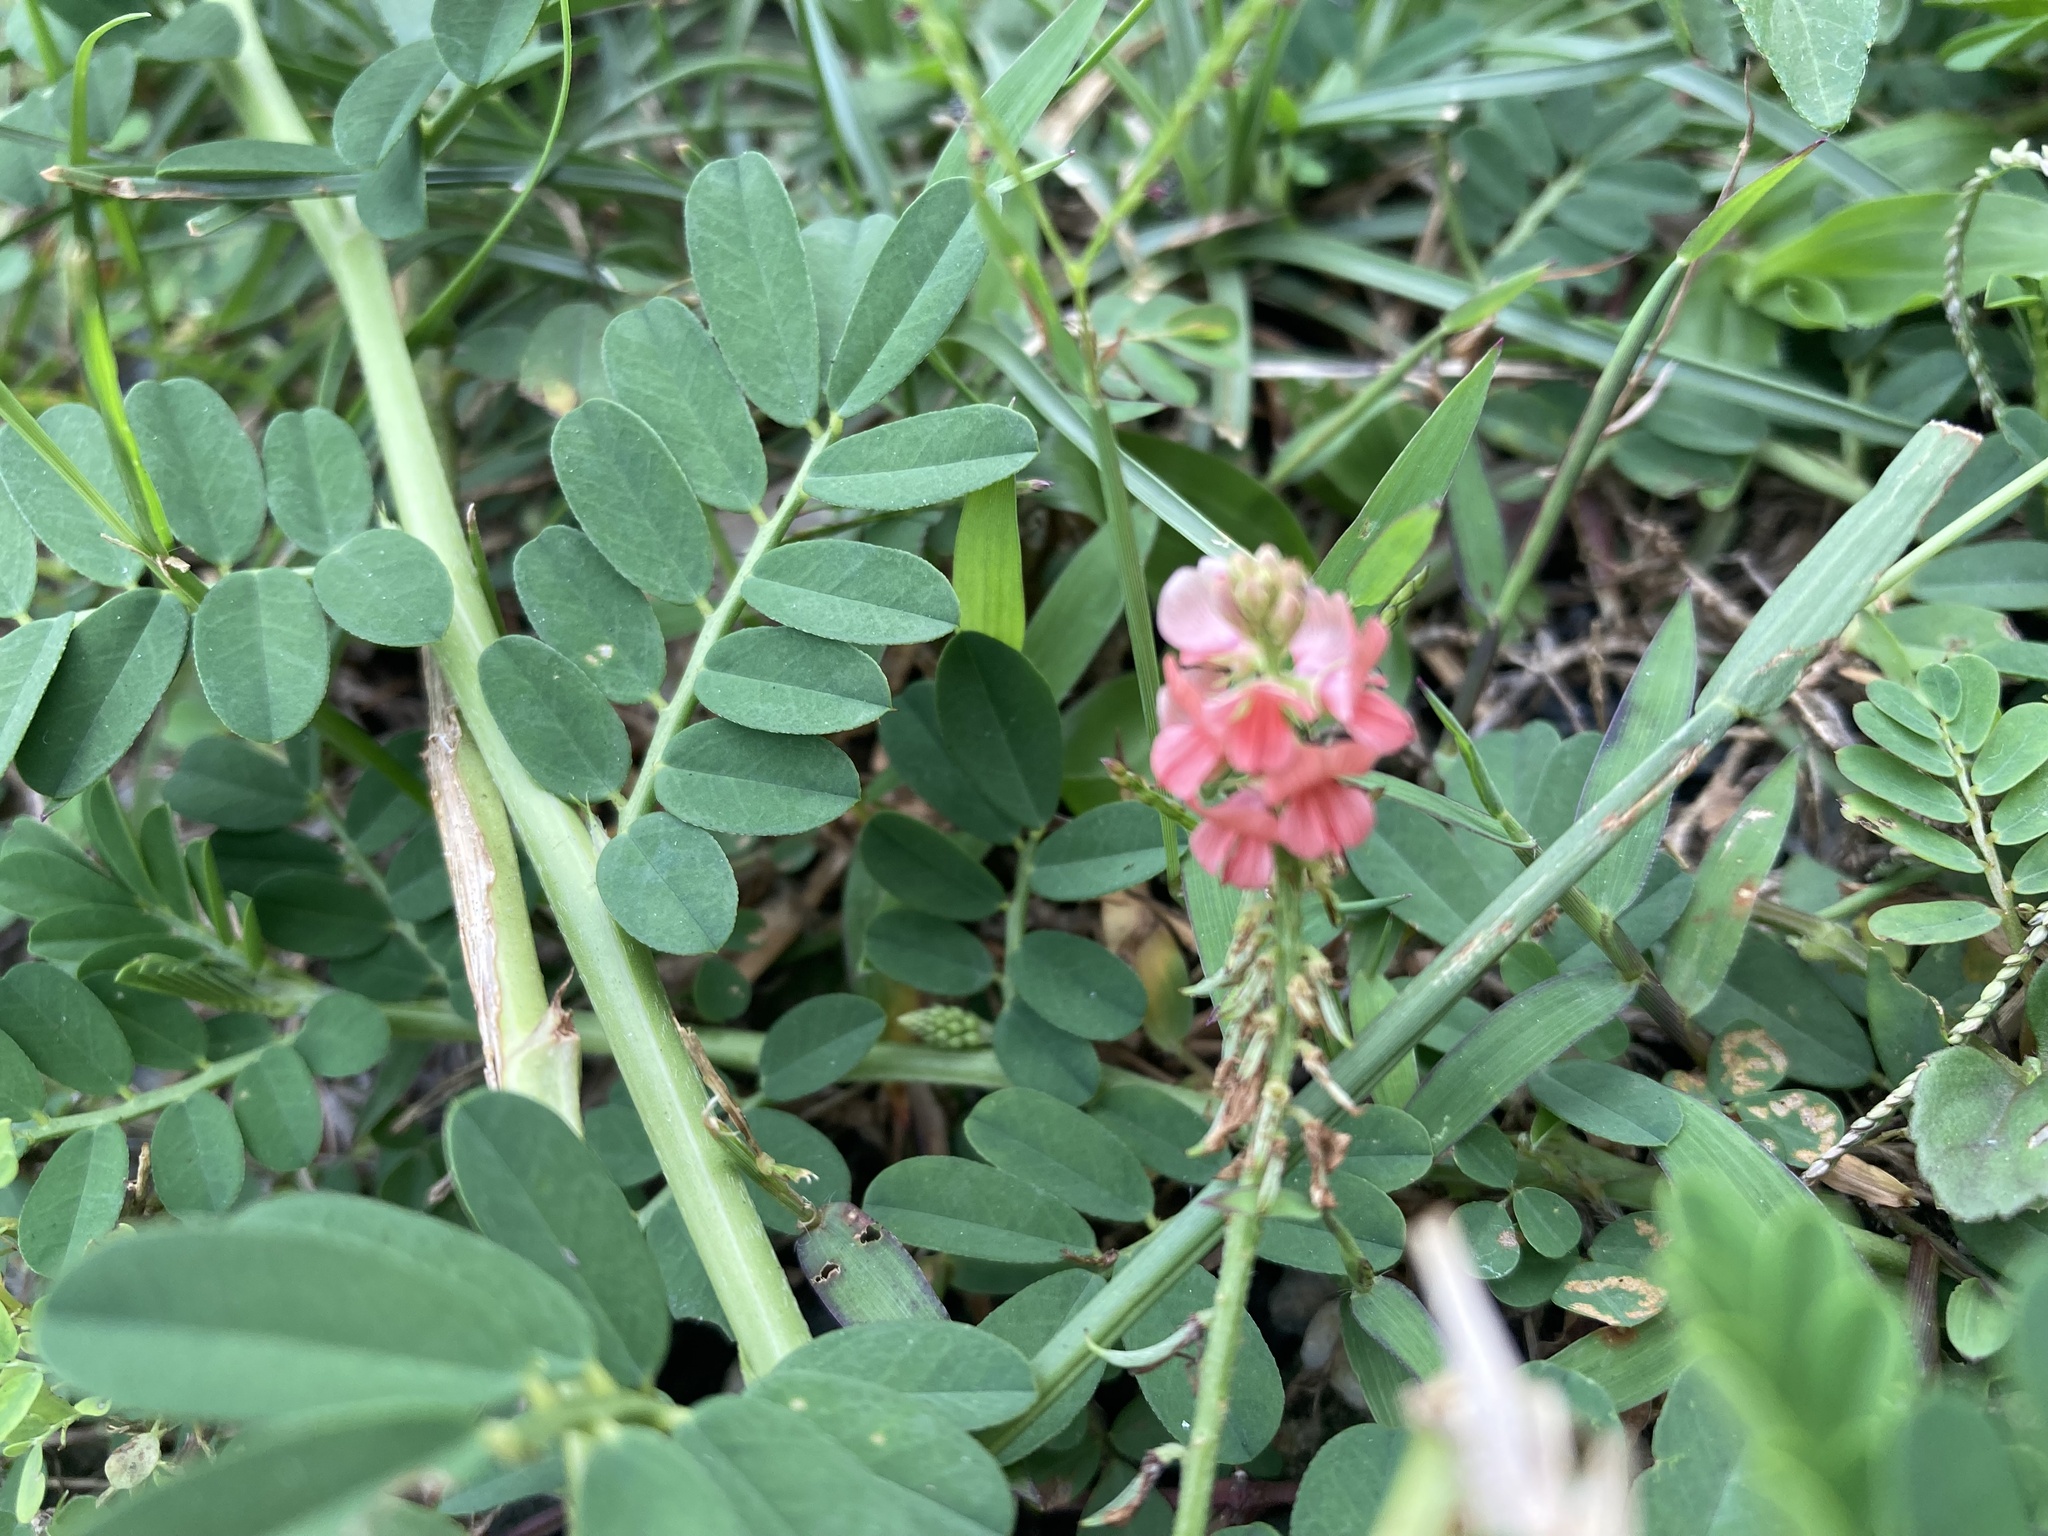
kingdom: Plantae
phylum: Tracheophyta
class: Magnoliopsida
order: Fabales
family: Fabaceae
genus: Indigofera
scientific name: Indigofera hendecaphylla
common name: Trailing indigo
